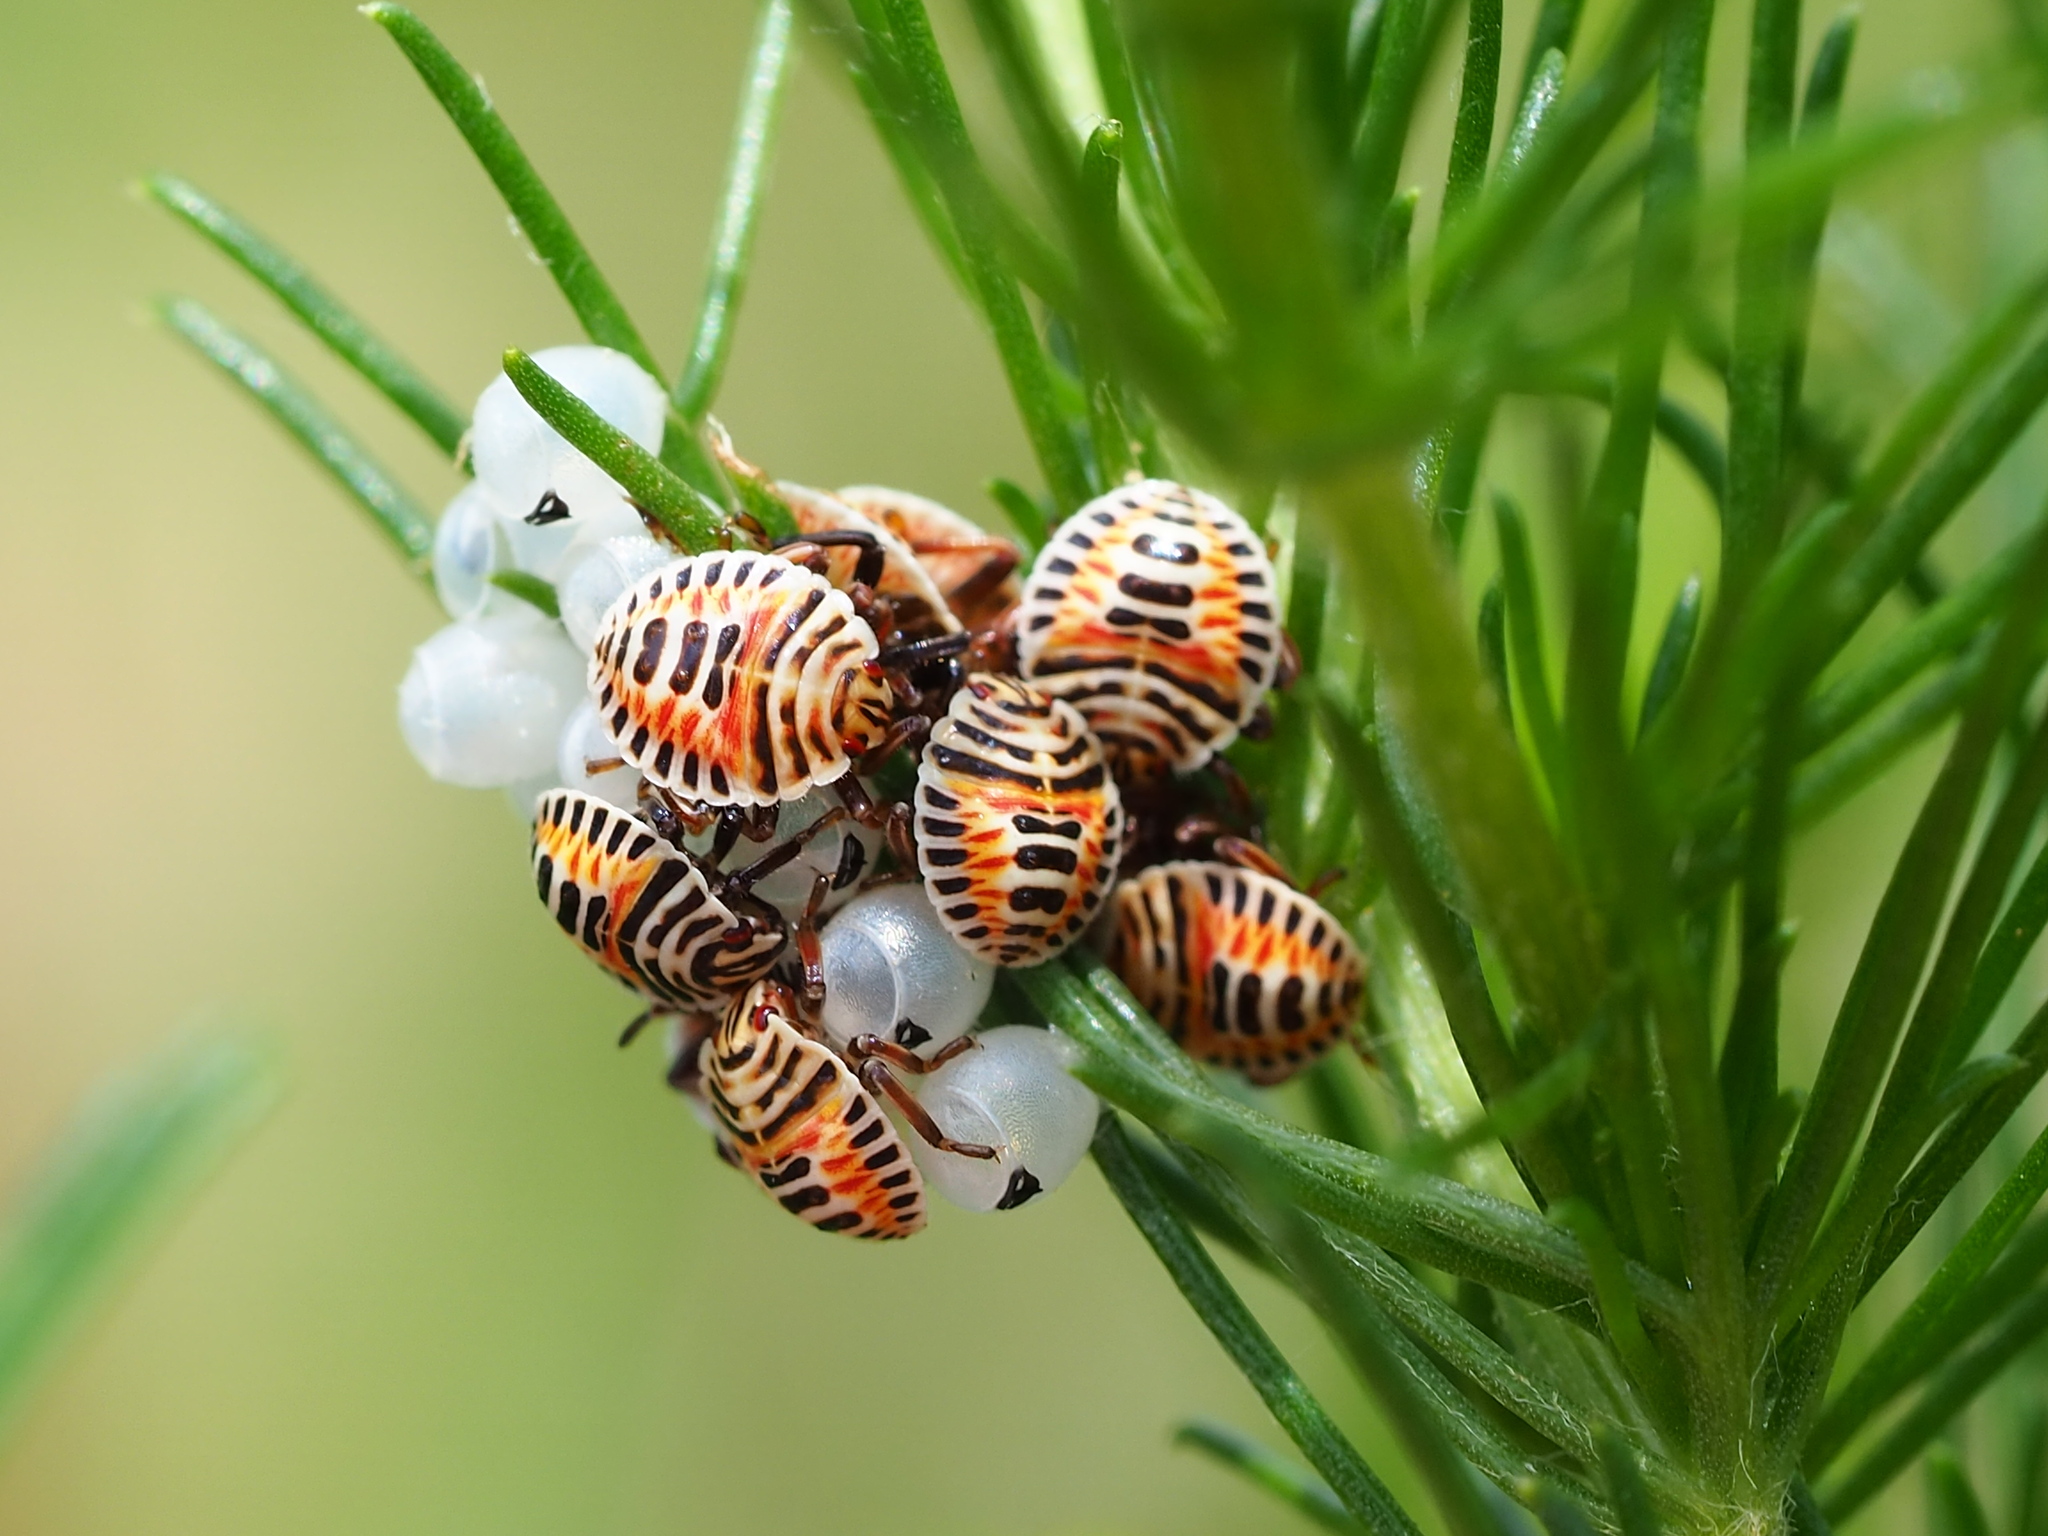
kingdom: Animalia
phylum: Arthropoda
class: Insecta
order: Hemiptera
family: Pentatomidae
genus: Erthesina
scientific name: Erthesina fullo
